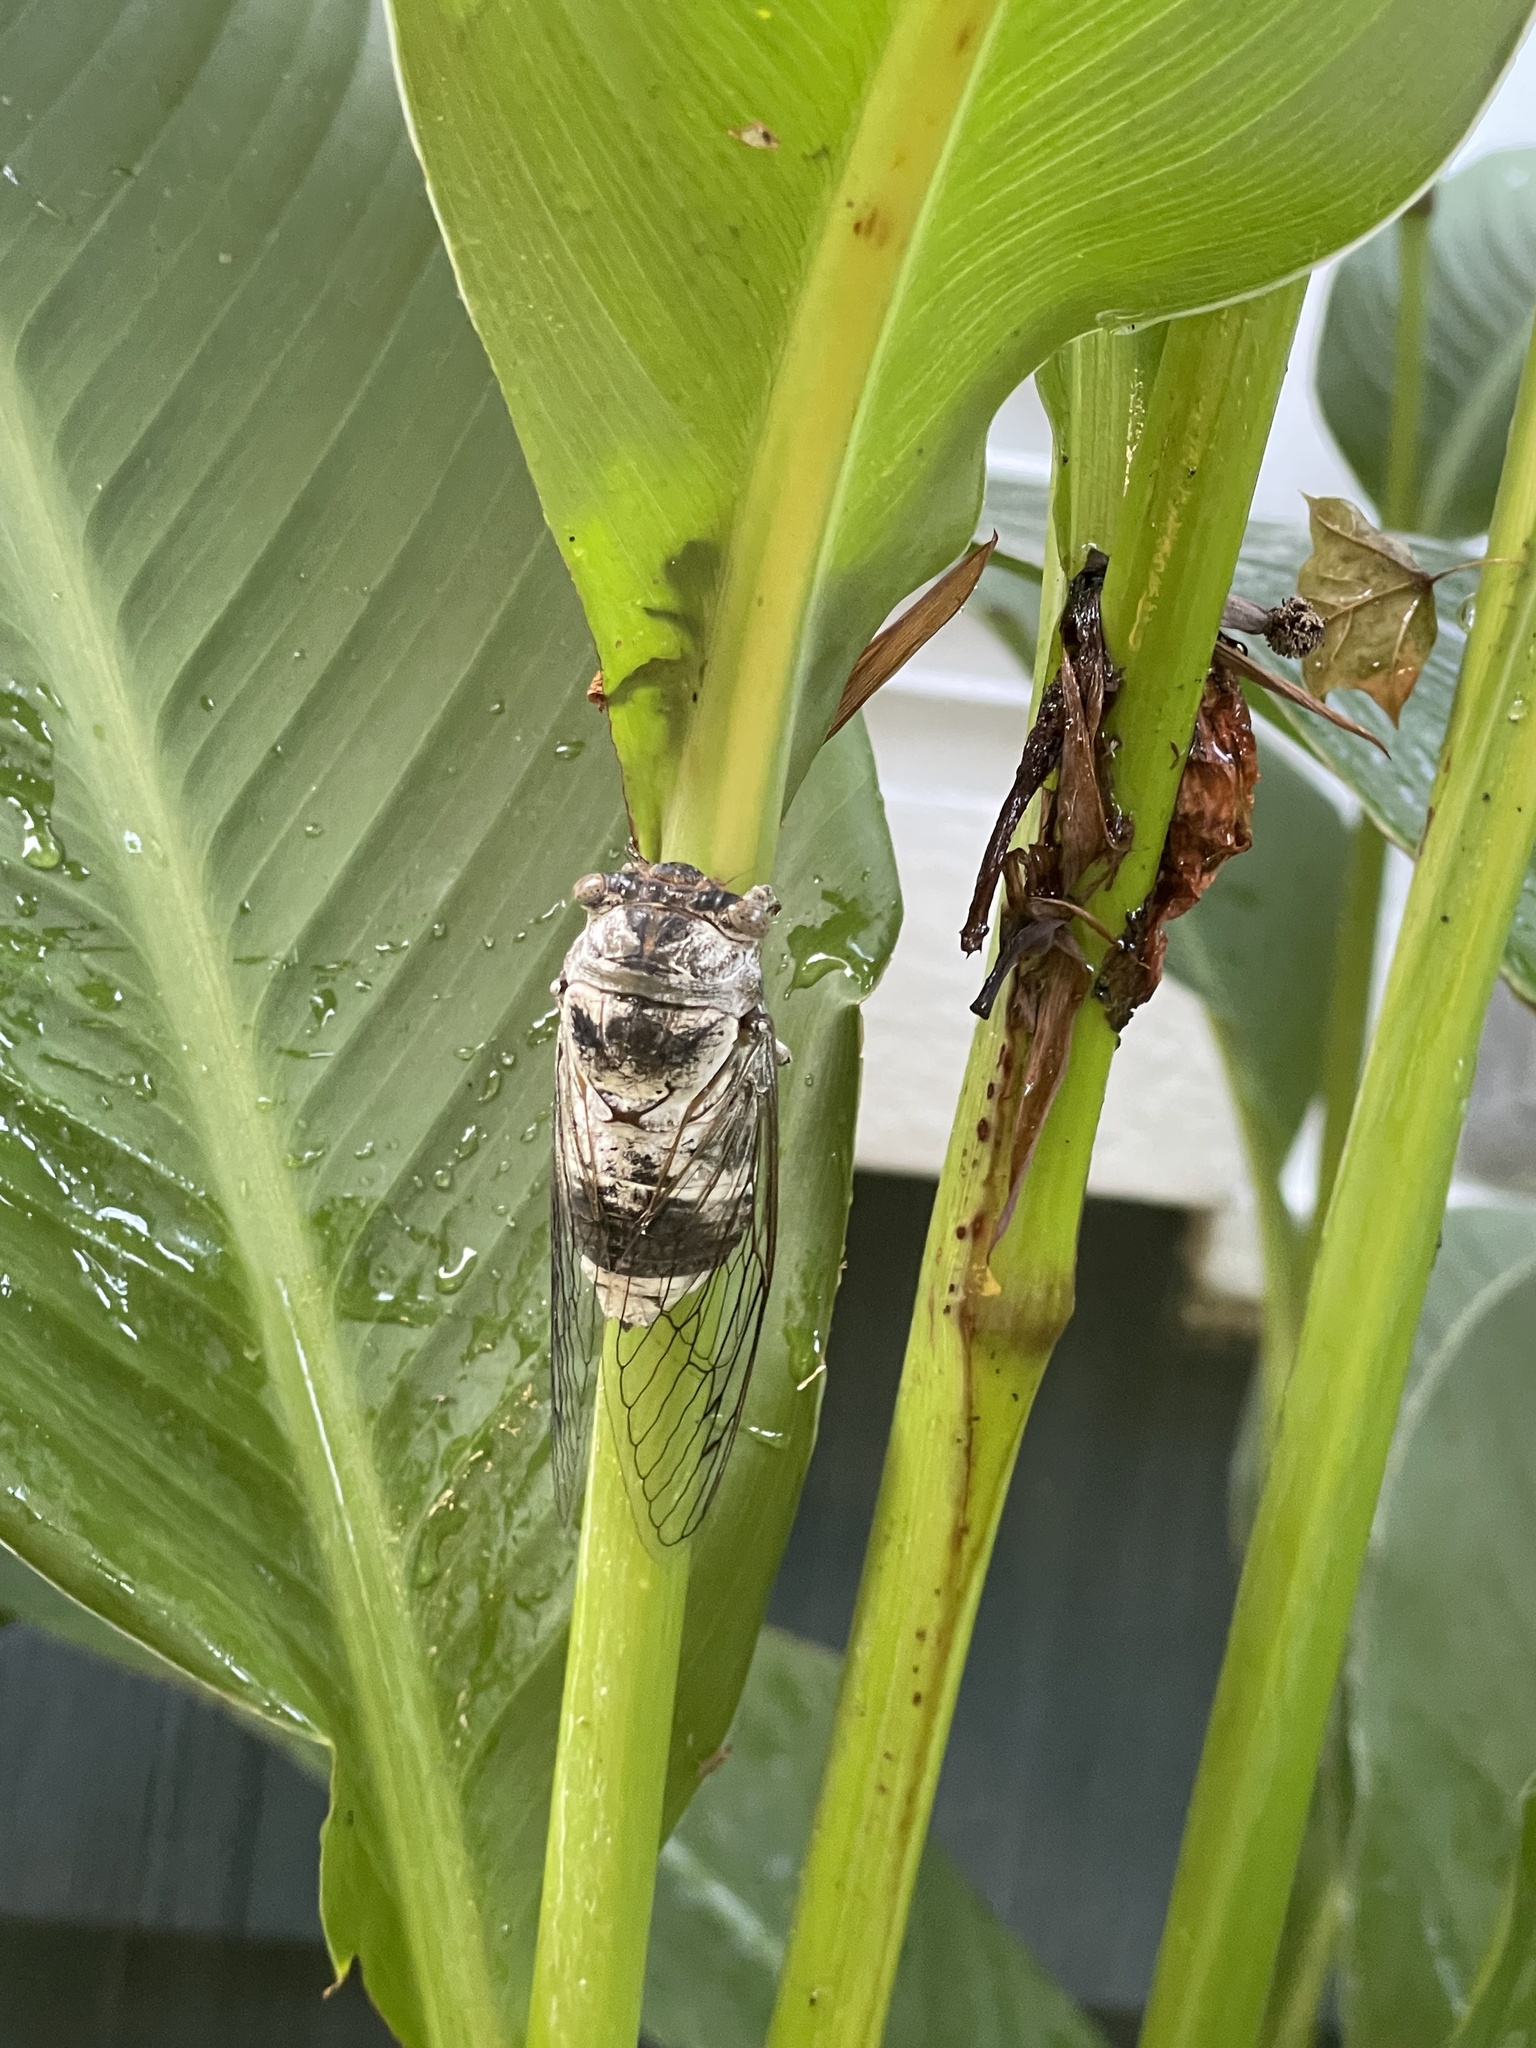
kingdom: Animalia
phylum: Arthropoda
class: Insecta
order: Hemiptera
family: Cicadidae
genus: Diceroprocta
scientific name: Diceroprocta grossa
